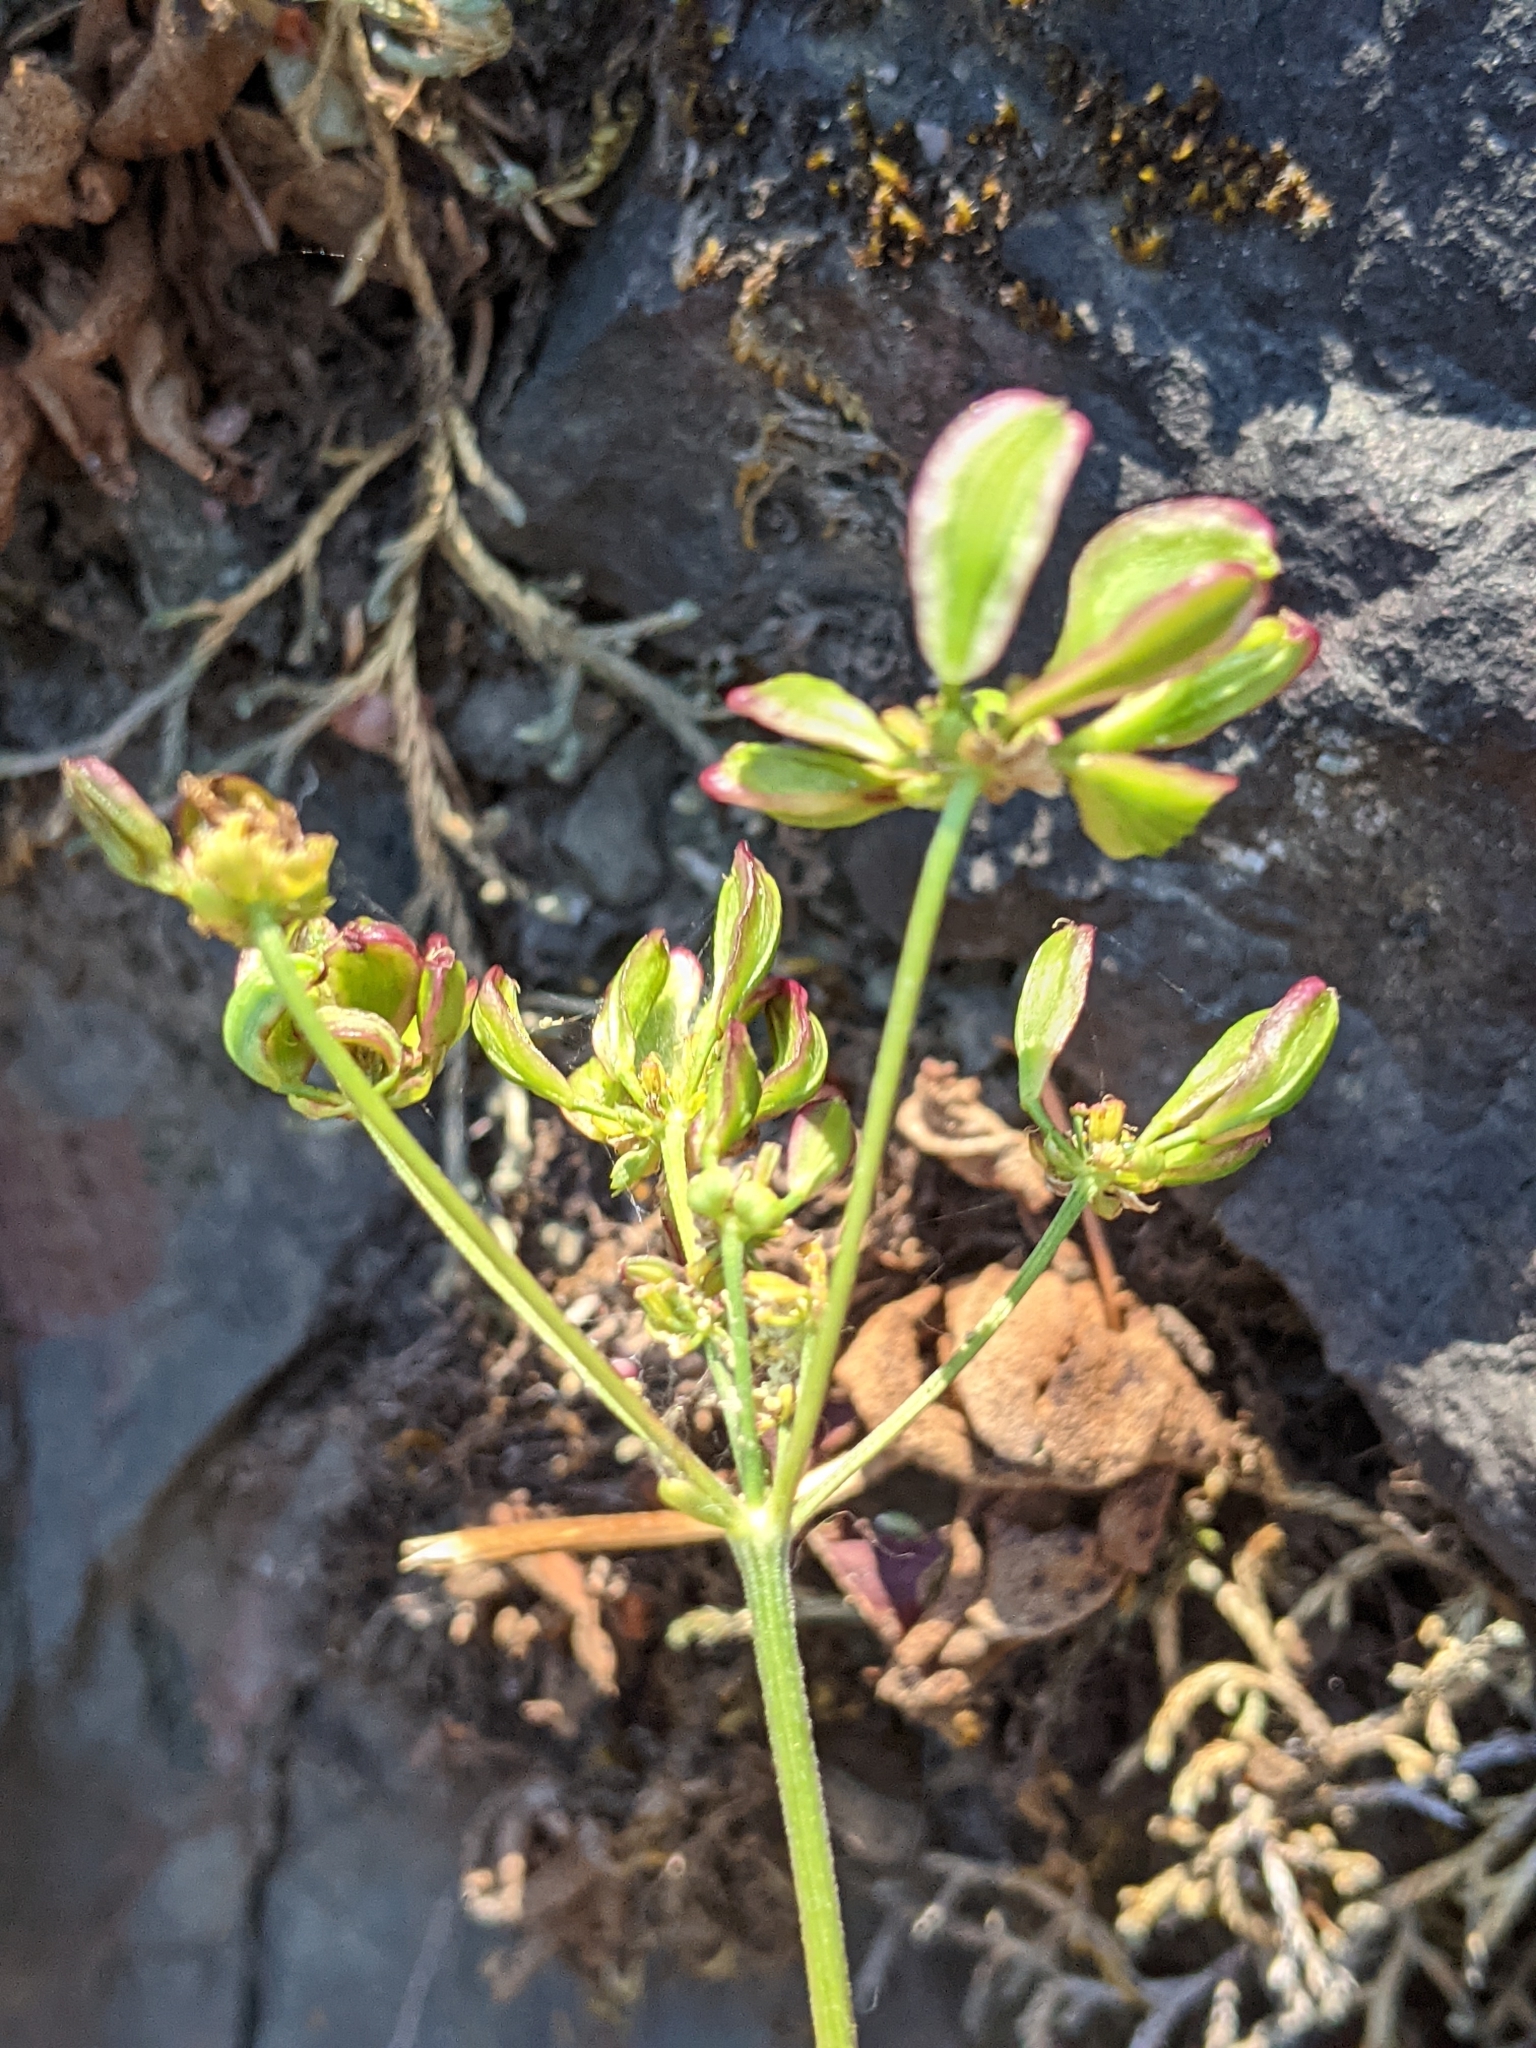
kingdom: Plantae
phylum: Tracheophyta
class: Magnoliopsida
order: Apiales
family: Apiaceae
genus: Lomatium
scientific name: Lomatium utriculatum
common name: Fine-leaf desert-parsley
